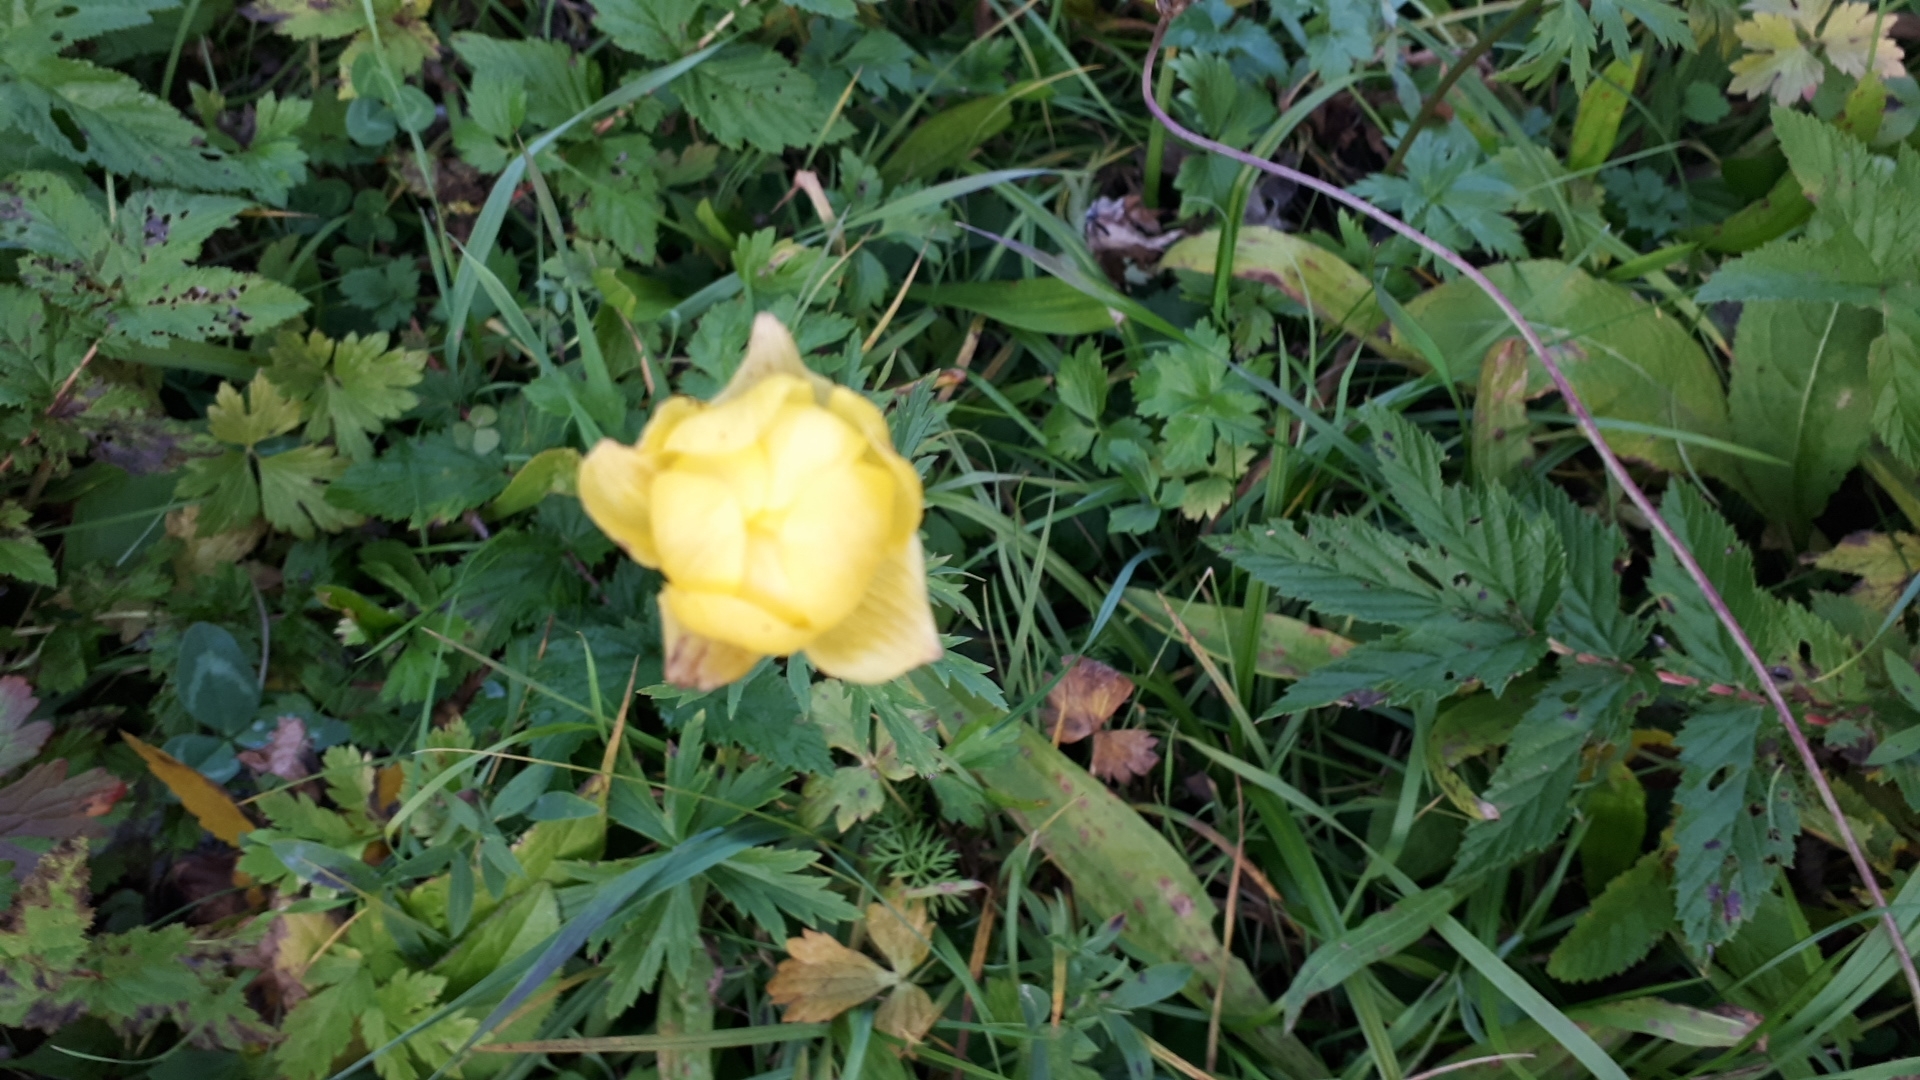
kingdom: Plantae
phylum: Tracheophyta
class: Magnoliopsida
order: Ranunculales
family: Ranunculaceae
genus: Trollius
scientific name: Trollius europaeus
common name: European globeflower
